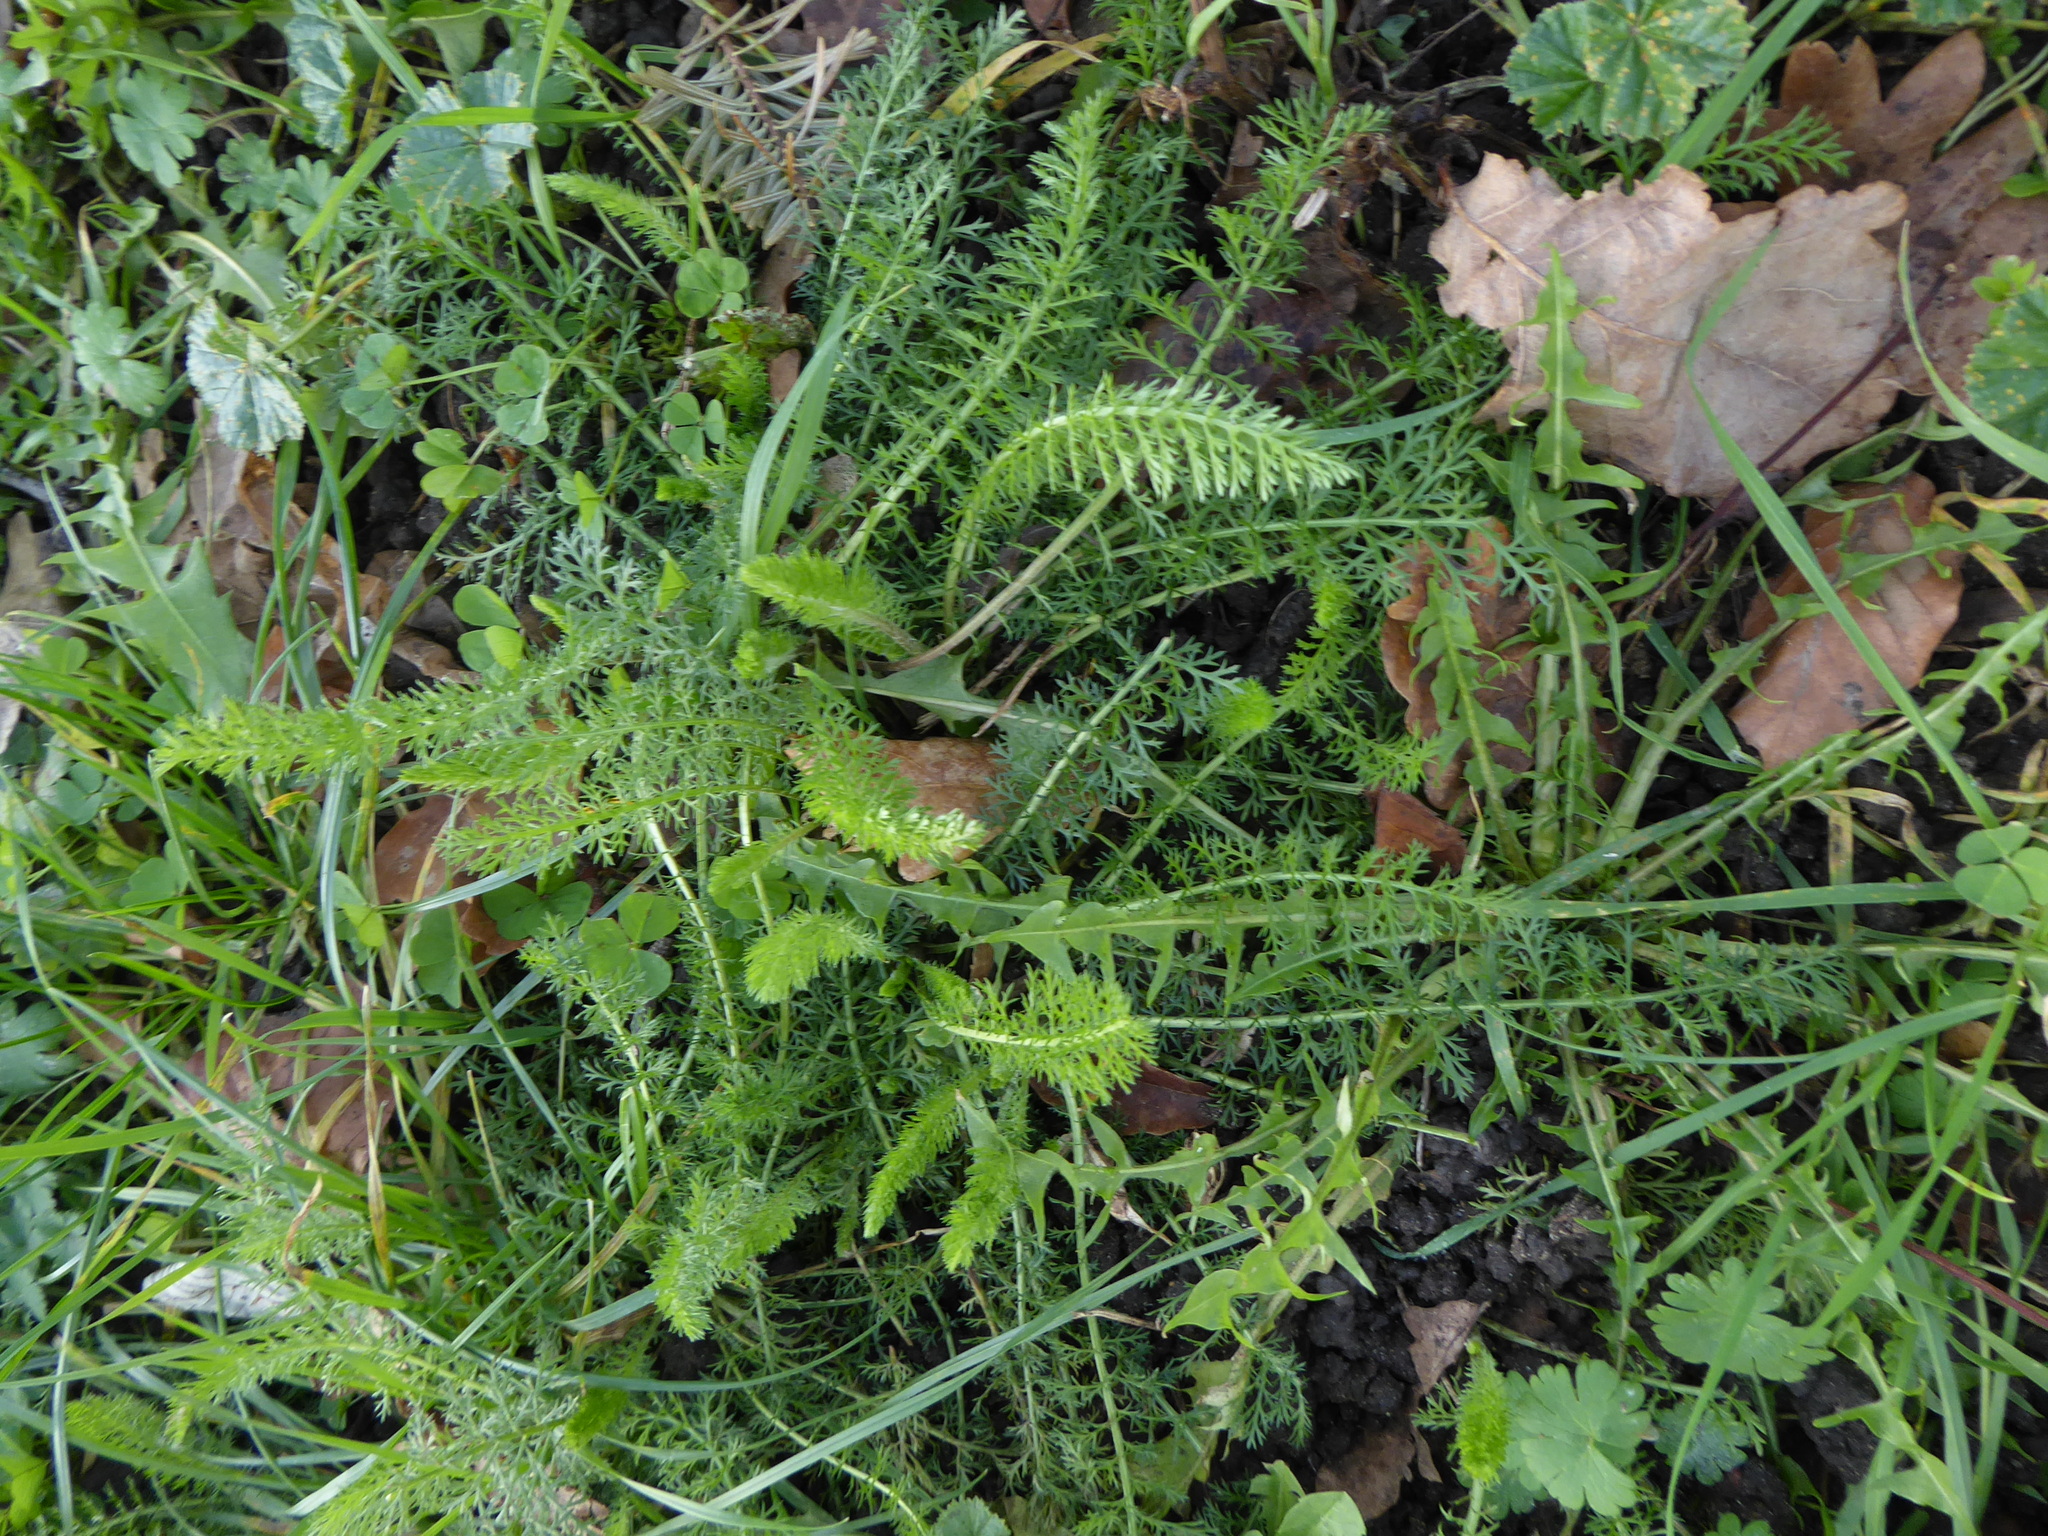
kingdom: Plantae
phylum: Tracheophyta
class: Magnoliopsida
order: Asterales
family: Asteraceae
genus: Achillea
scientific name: Achillea millefolium
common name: Yarrow
